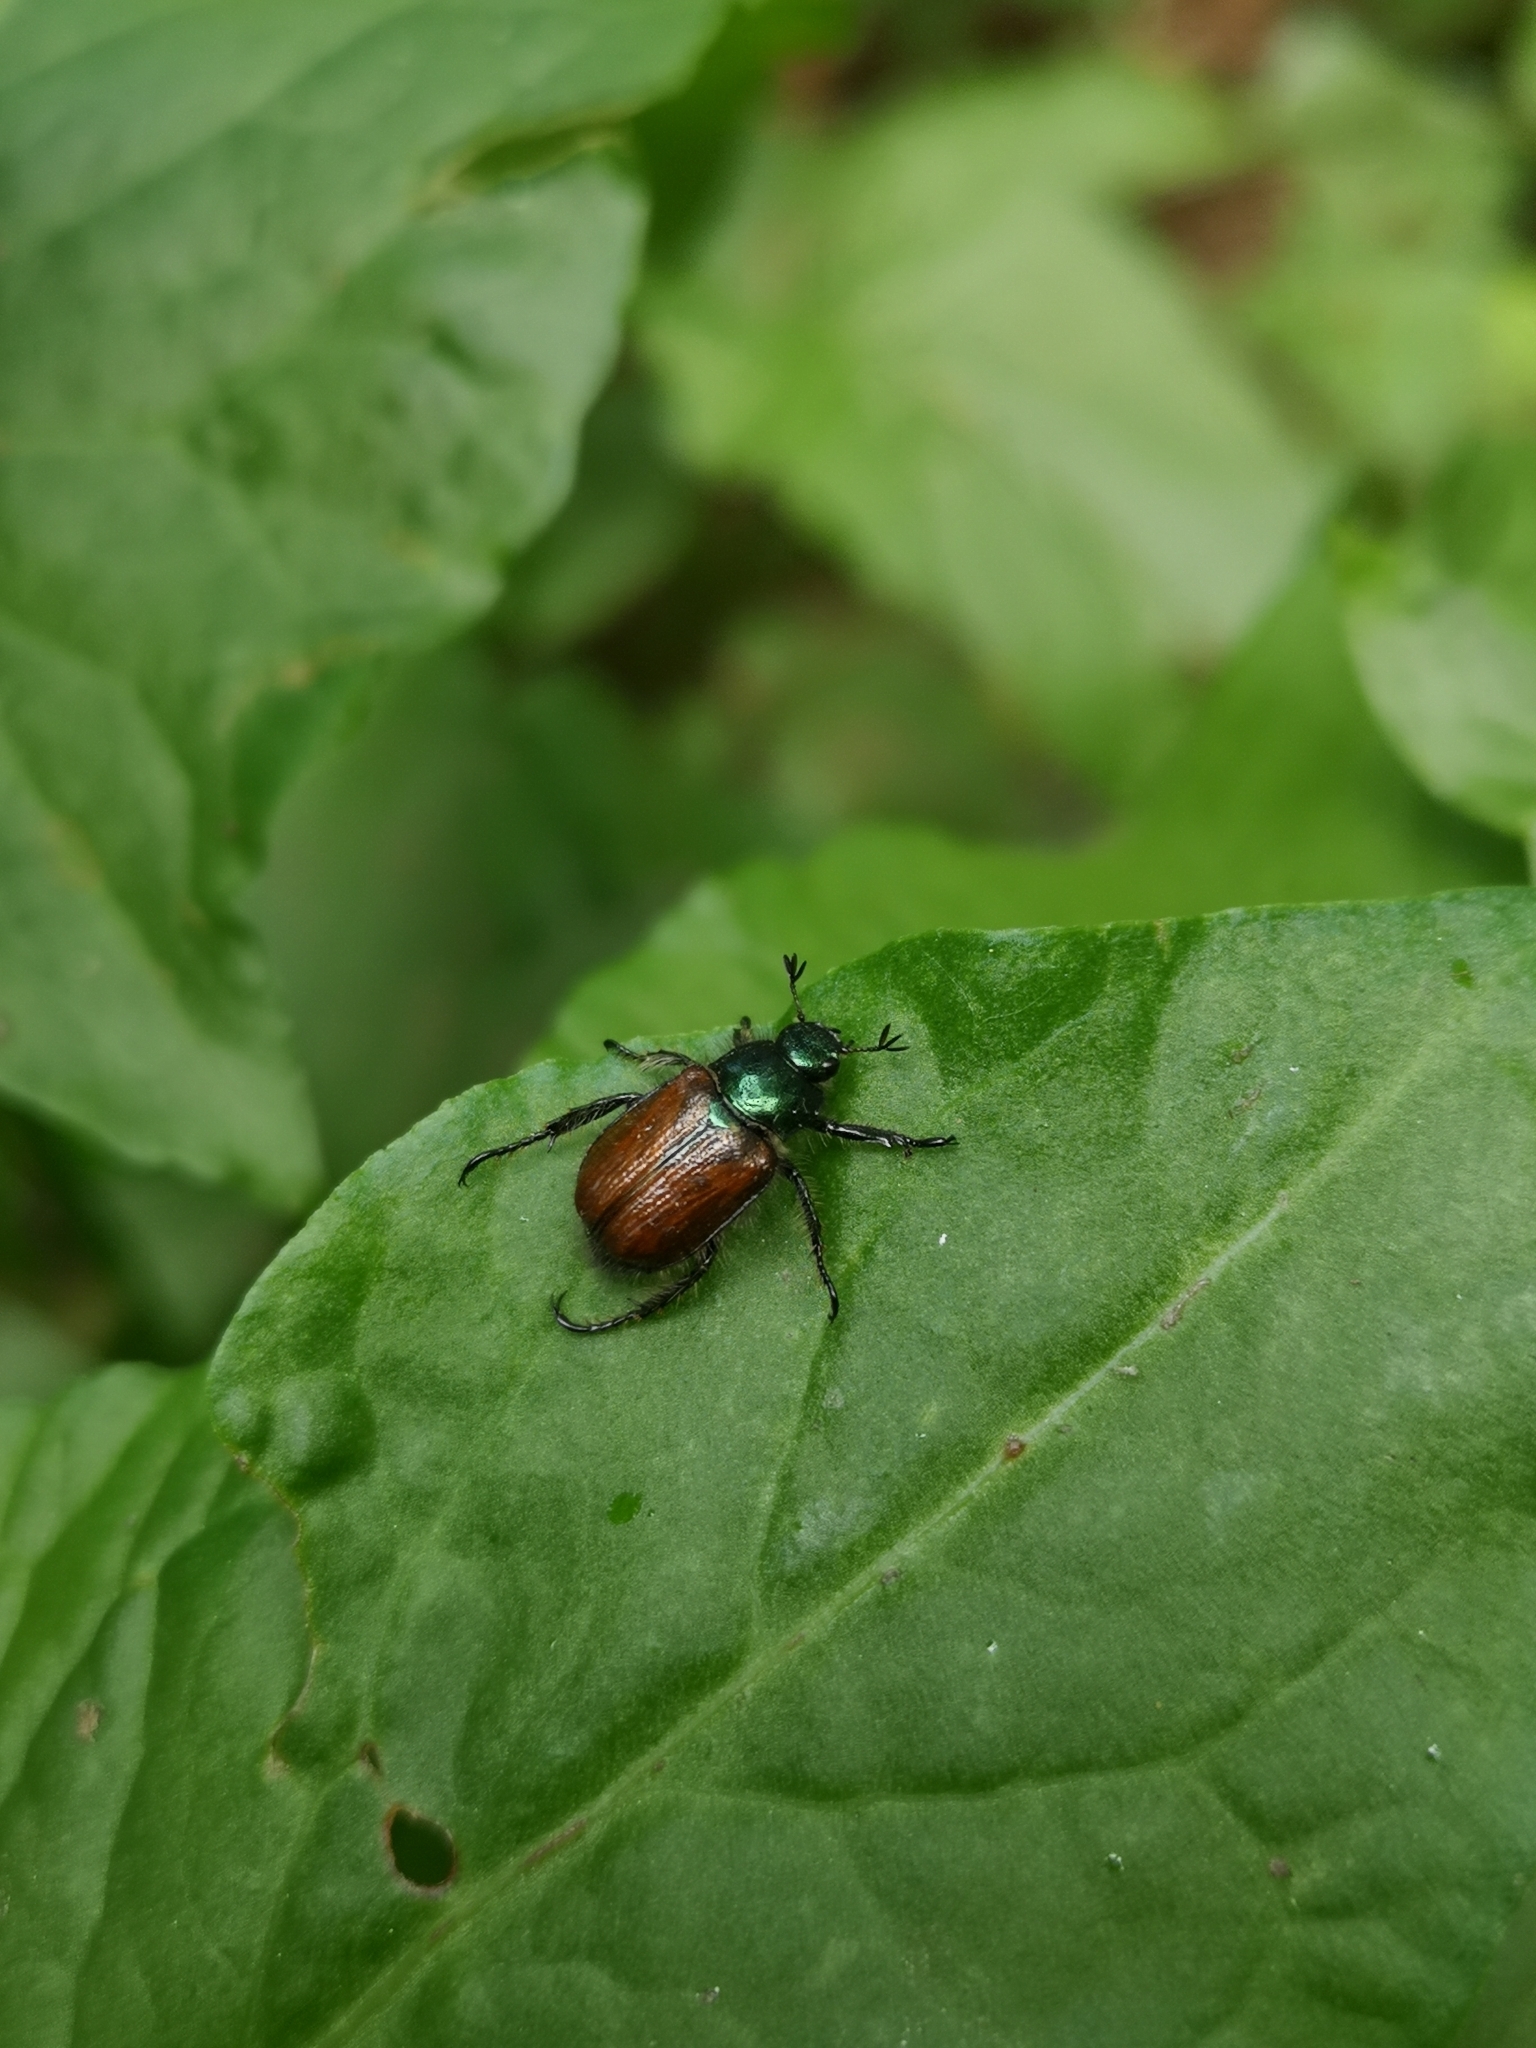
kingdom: Animalia
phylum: Arthropoda
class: Insecta
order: Coleoptera
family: Scarabaeidae
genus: Phyllopertha
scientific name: Phyllopertha horticola
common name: Garden chafer
